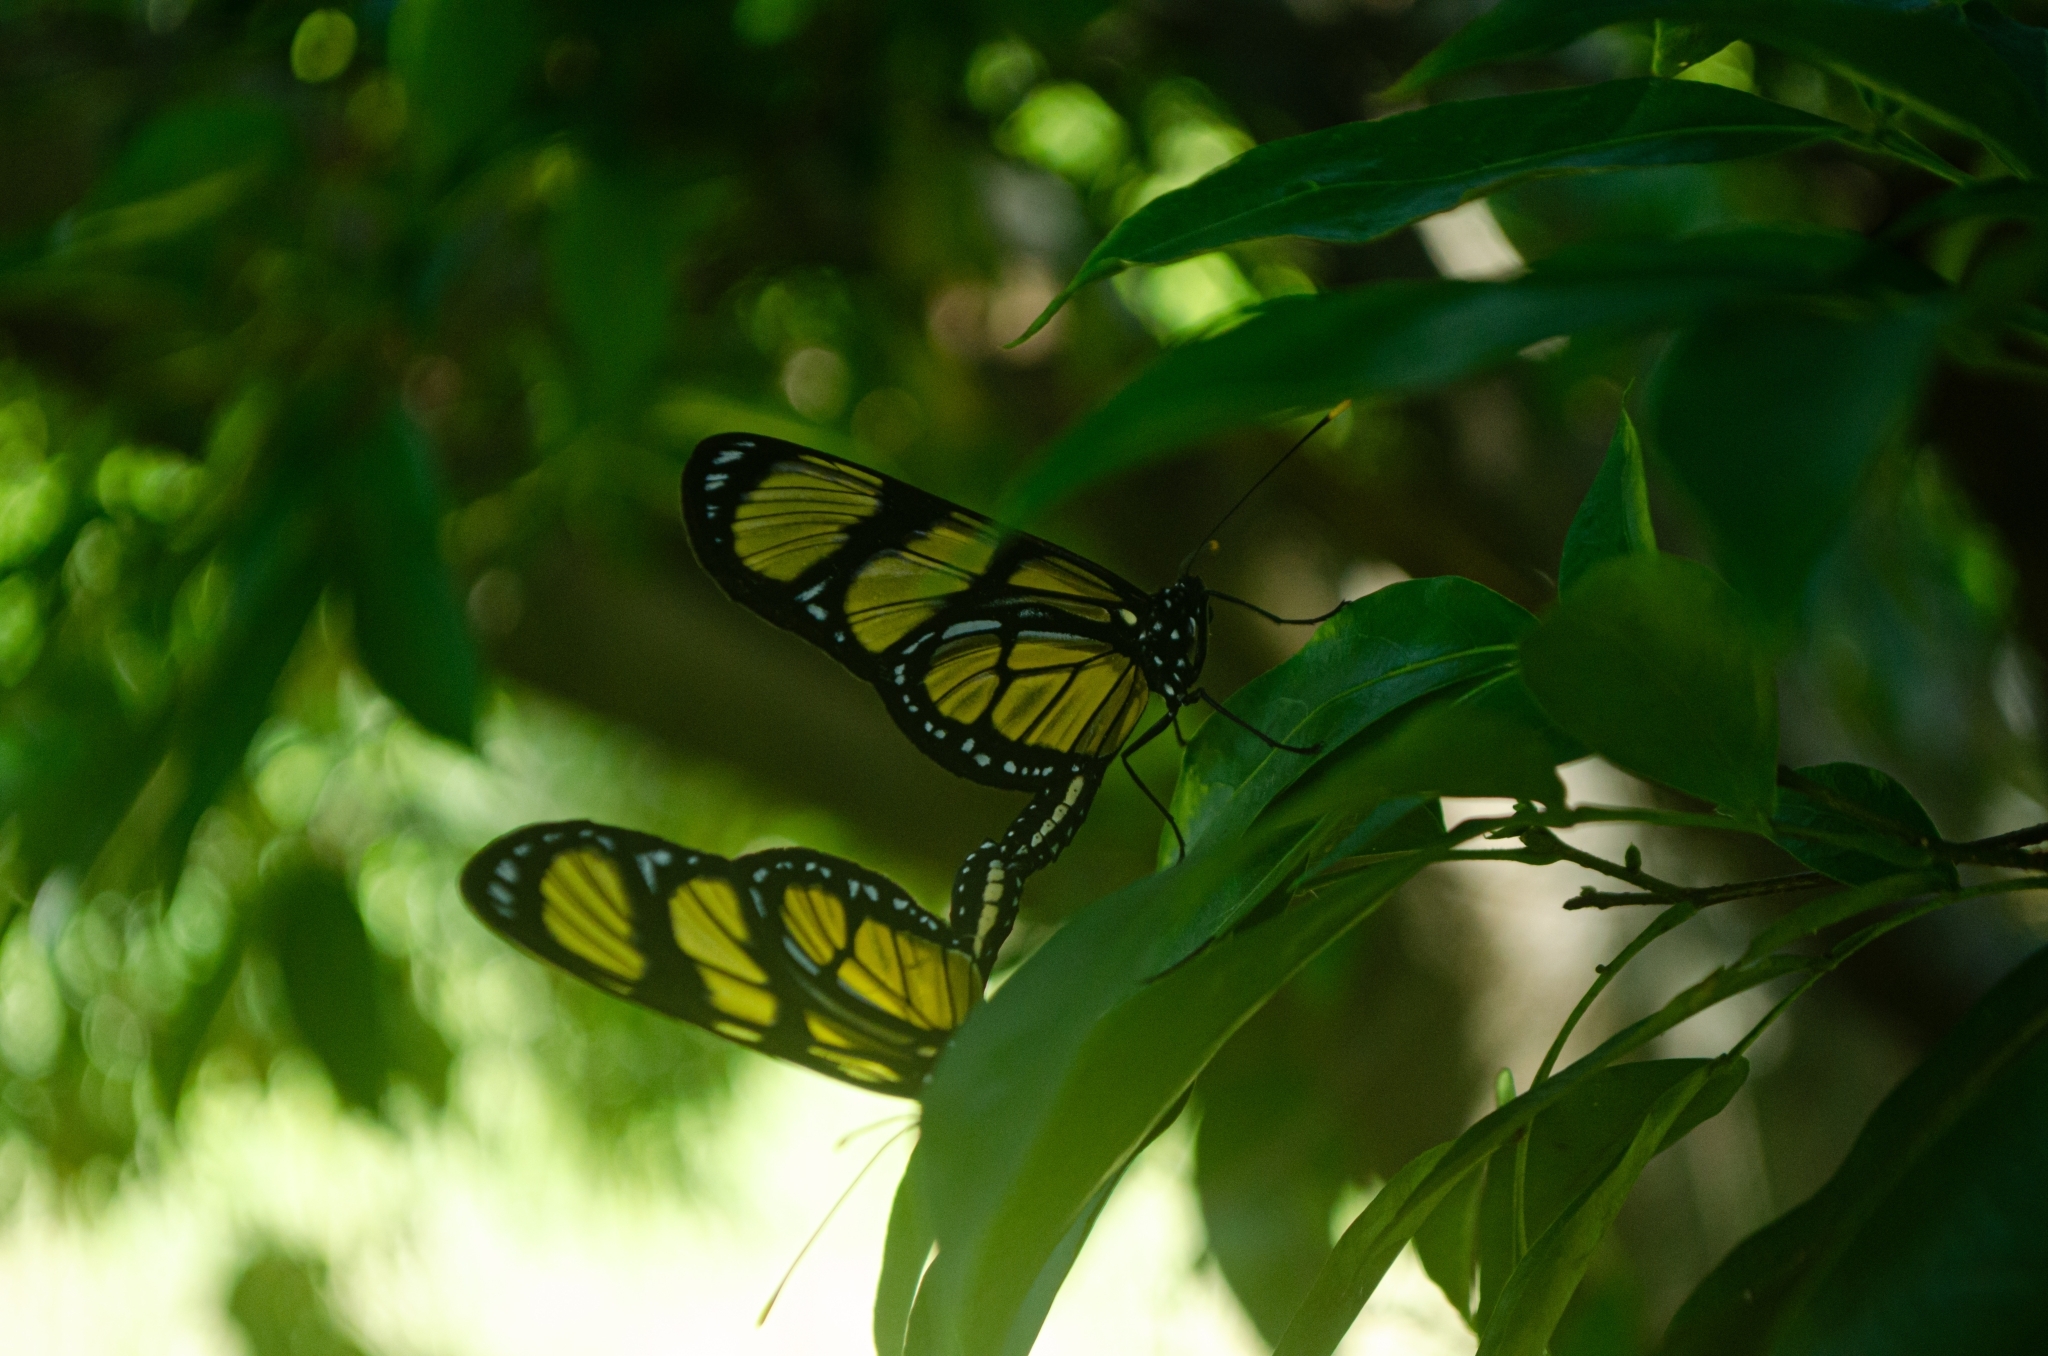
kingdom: Animalia
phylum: Arthropoda
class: Insecta
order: Lepidoptera
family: Nymphalidae
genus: Methona
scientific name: Methona themisto
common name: Themisto amberwing
